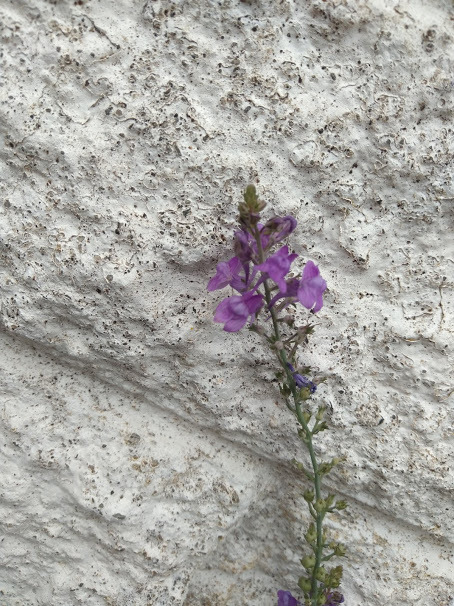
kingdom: Plantae
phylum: Tracheophyta
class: Magnoliopsida
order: Lamiales
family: Plantaginaceae
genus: Linaria
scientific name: Linaria purpurea
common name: Purple toadflax
